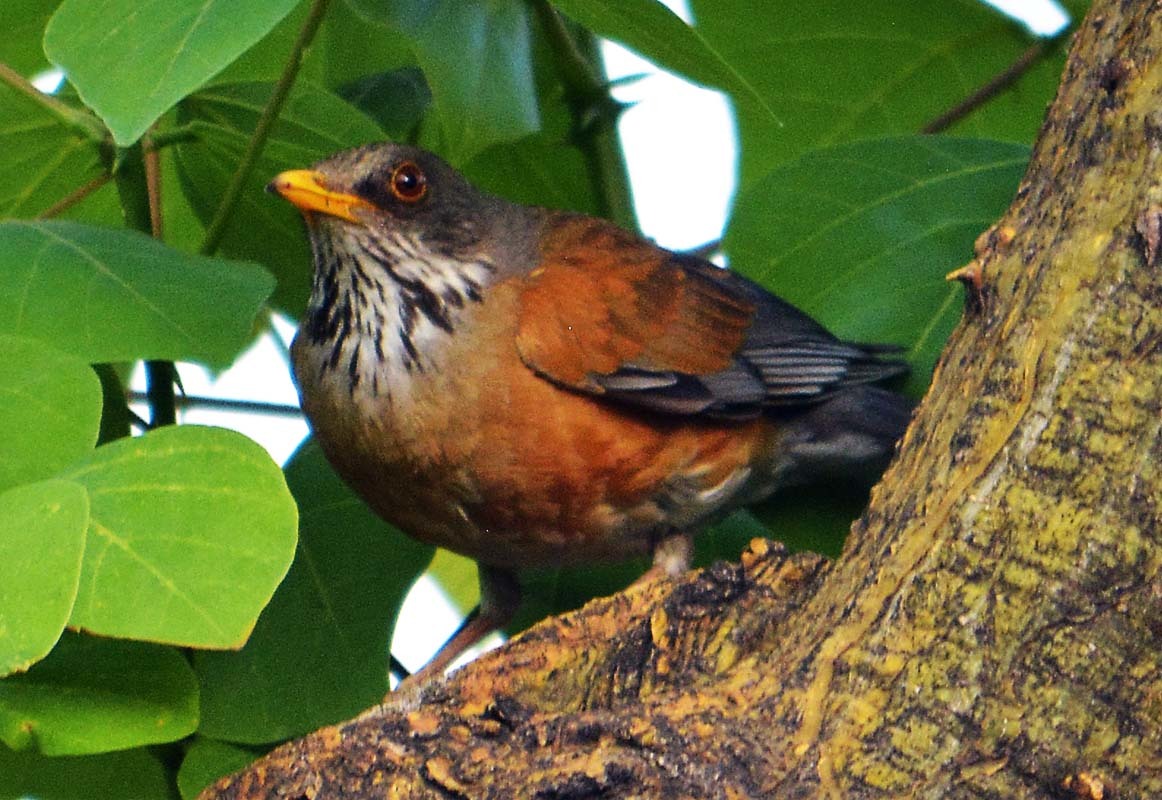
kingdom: Animalia
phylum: Chordata
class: Aves
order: Passeriformes
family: Turdidae
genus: Turdus
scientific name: Turdus rufopalliatus
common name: Rufous-backed robin
